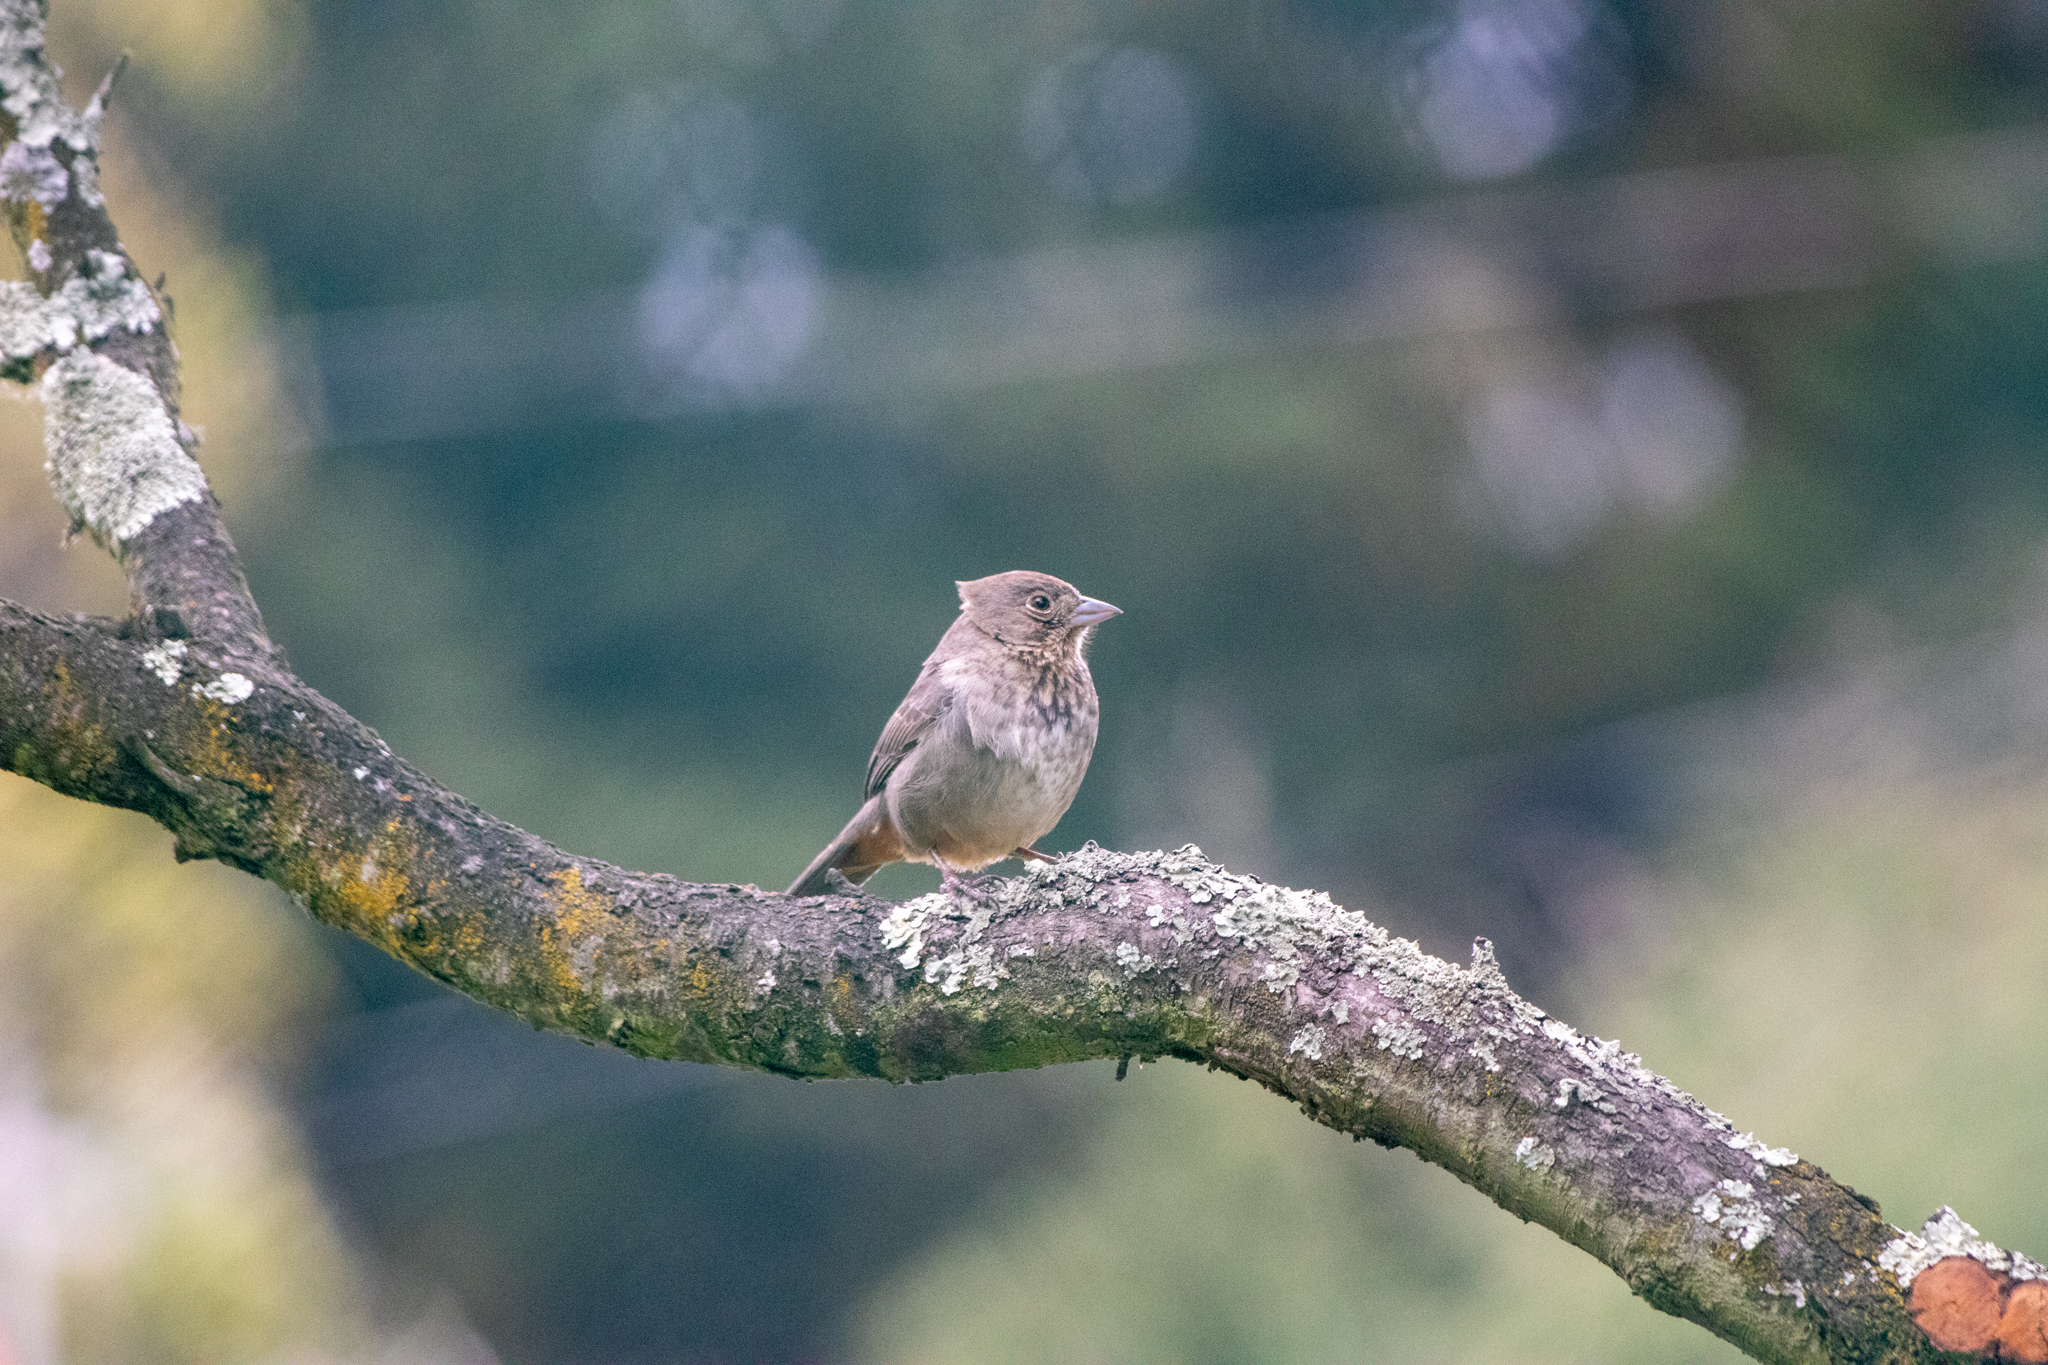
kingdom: Animalia
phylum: Chordata
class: Aves
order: Passeriformes
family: Passerellidae
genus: Melozone
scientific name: Melozone fusca
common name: Canyon towhee
